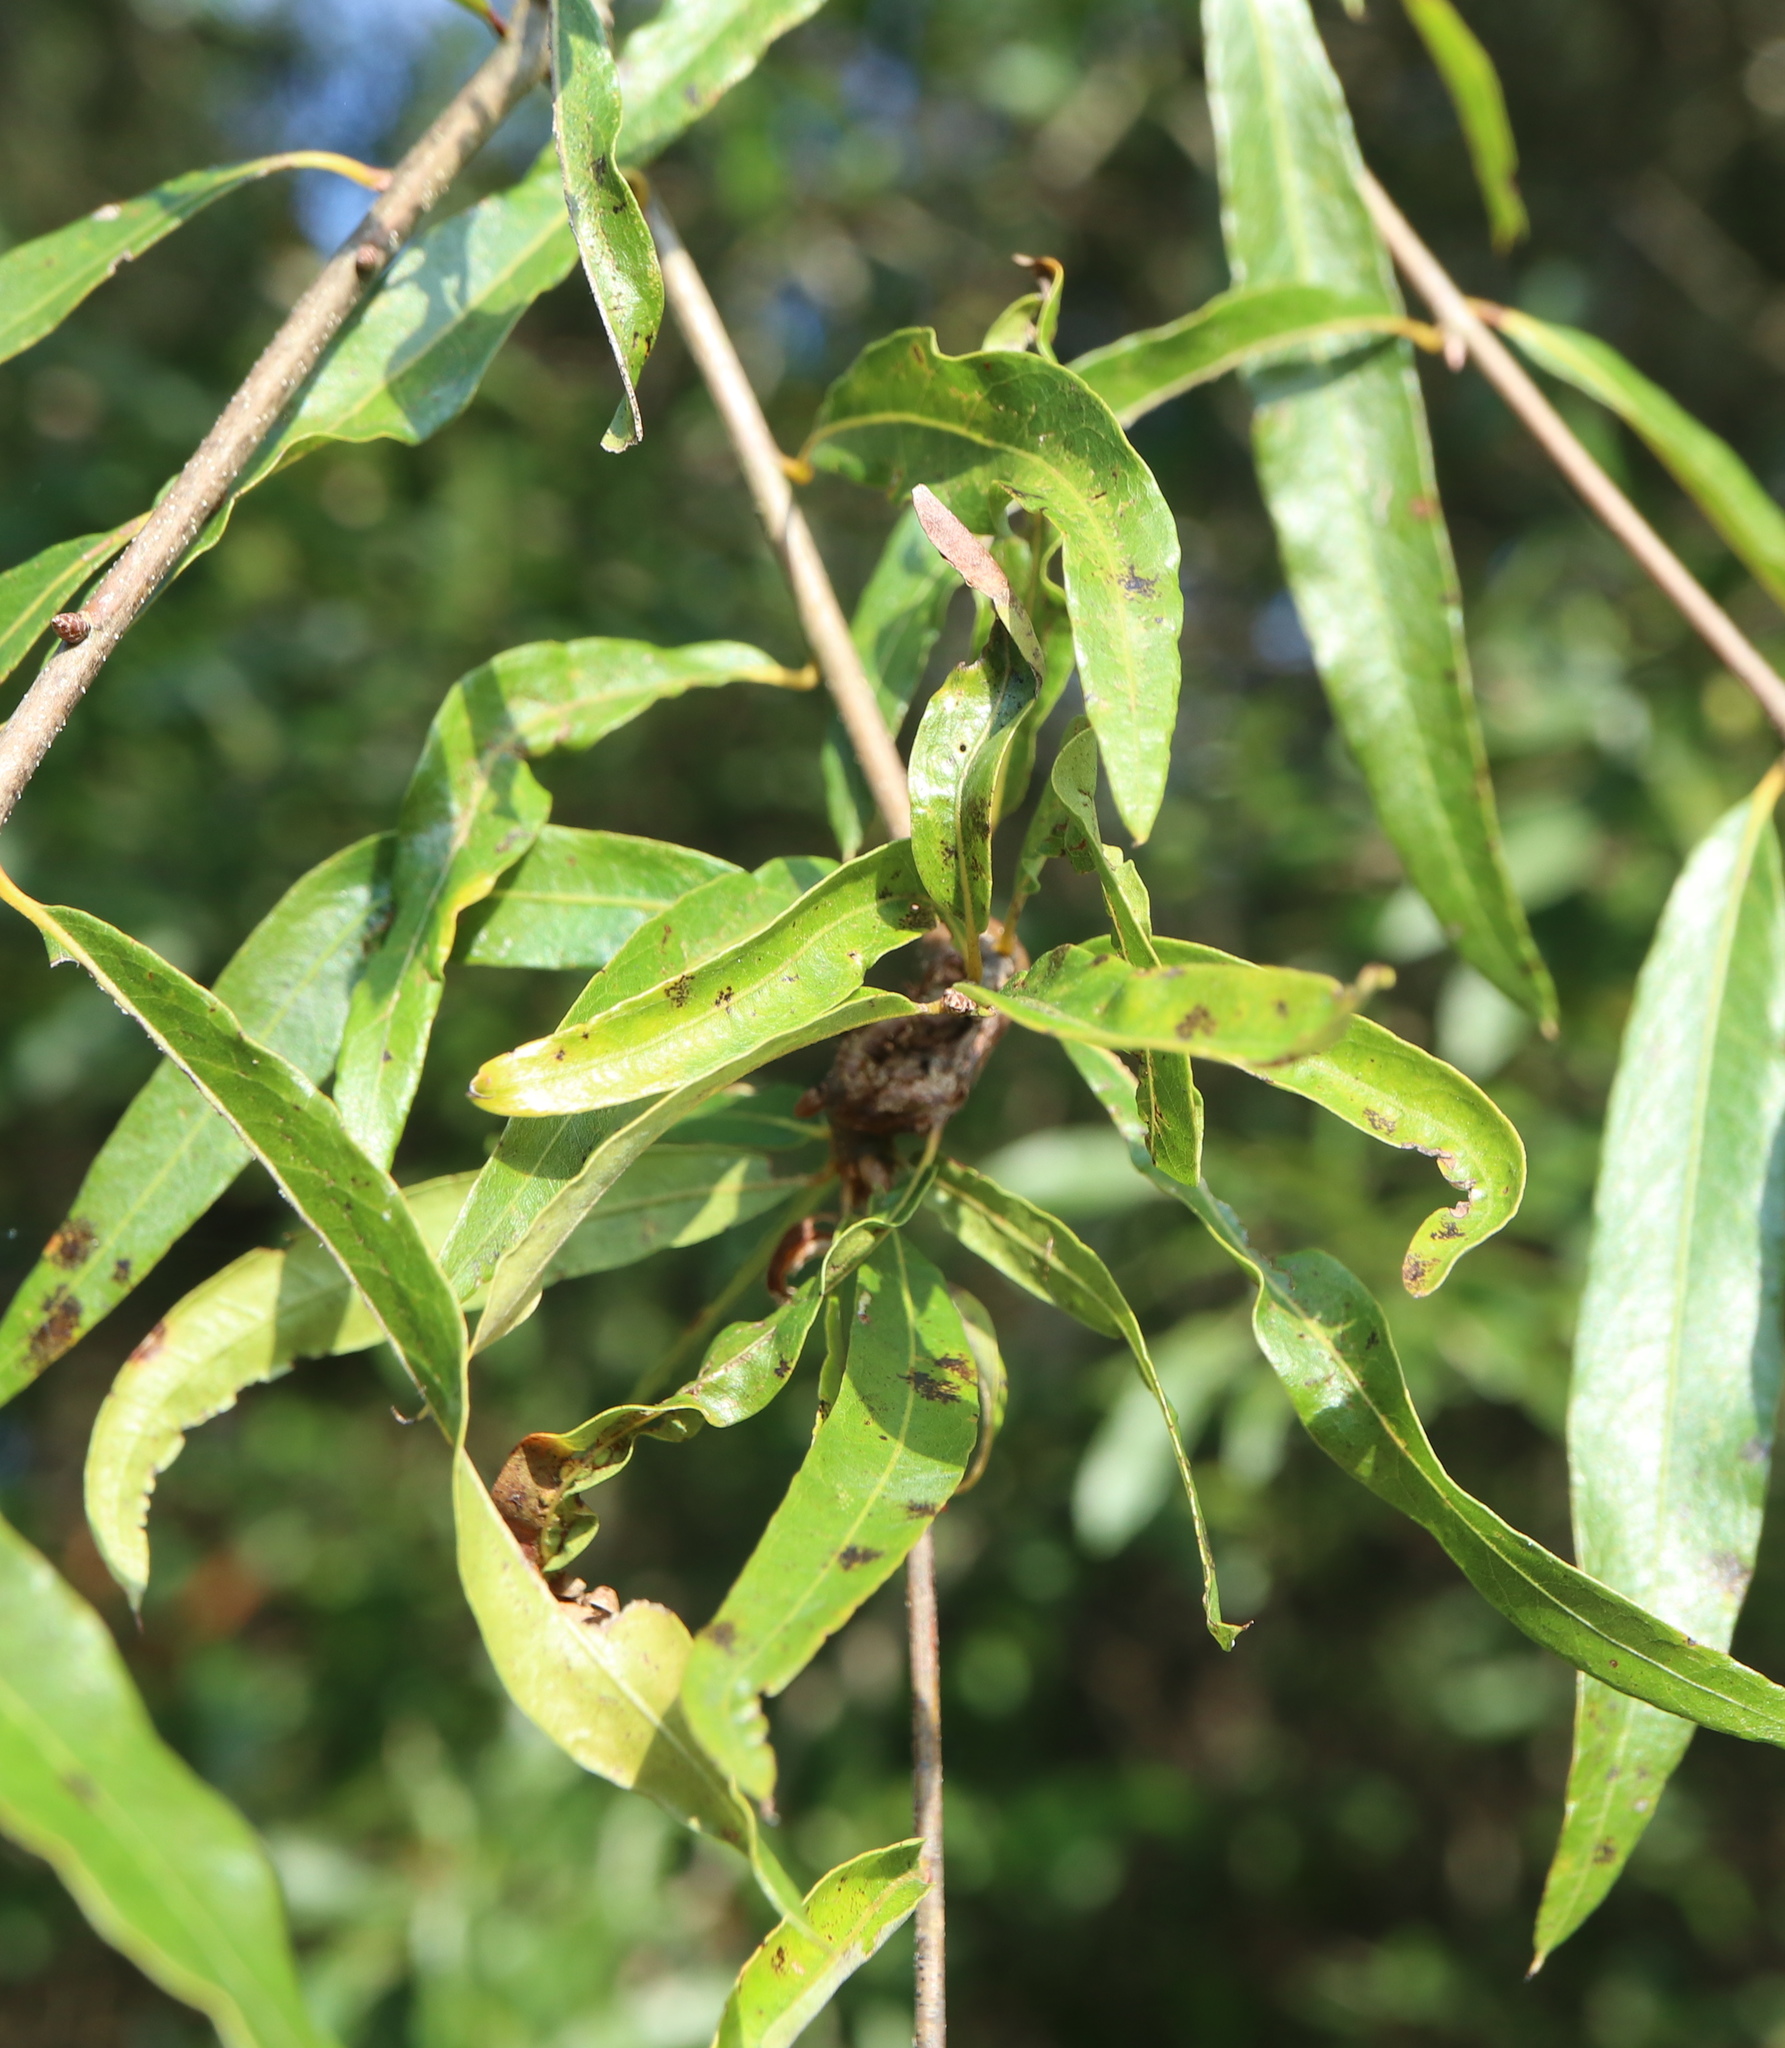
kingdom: Animalia
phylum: Arthropoda
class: Insecta
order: Hymenoptera
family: Cynipidae
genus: Zapatella
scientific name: Zapatella quercusphellos
